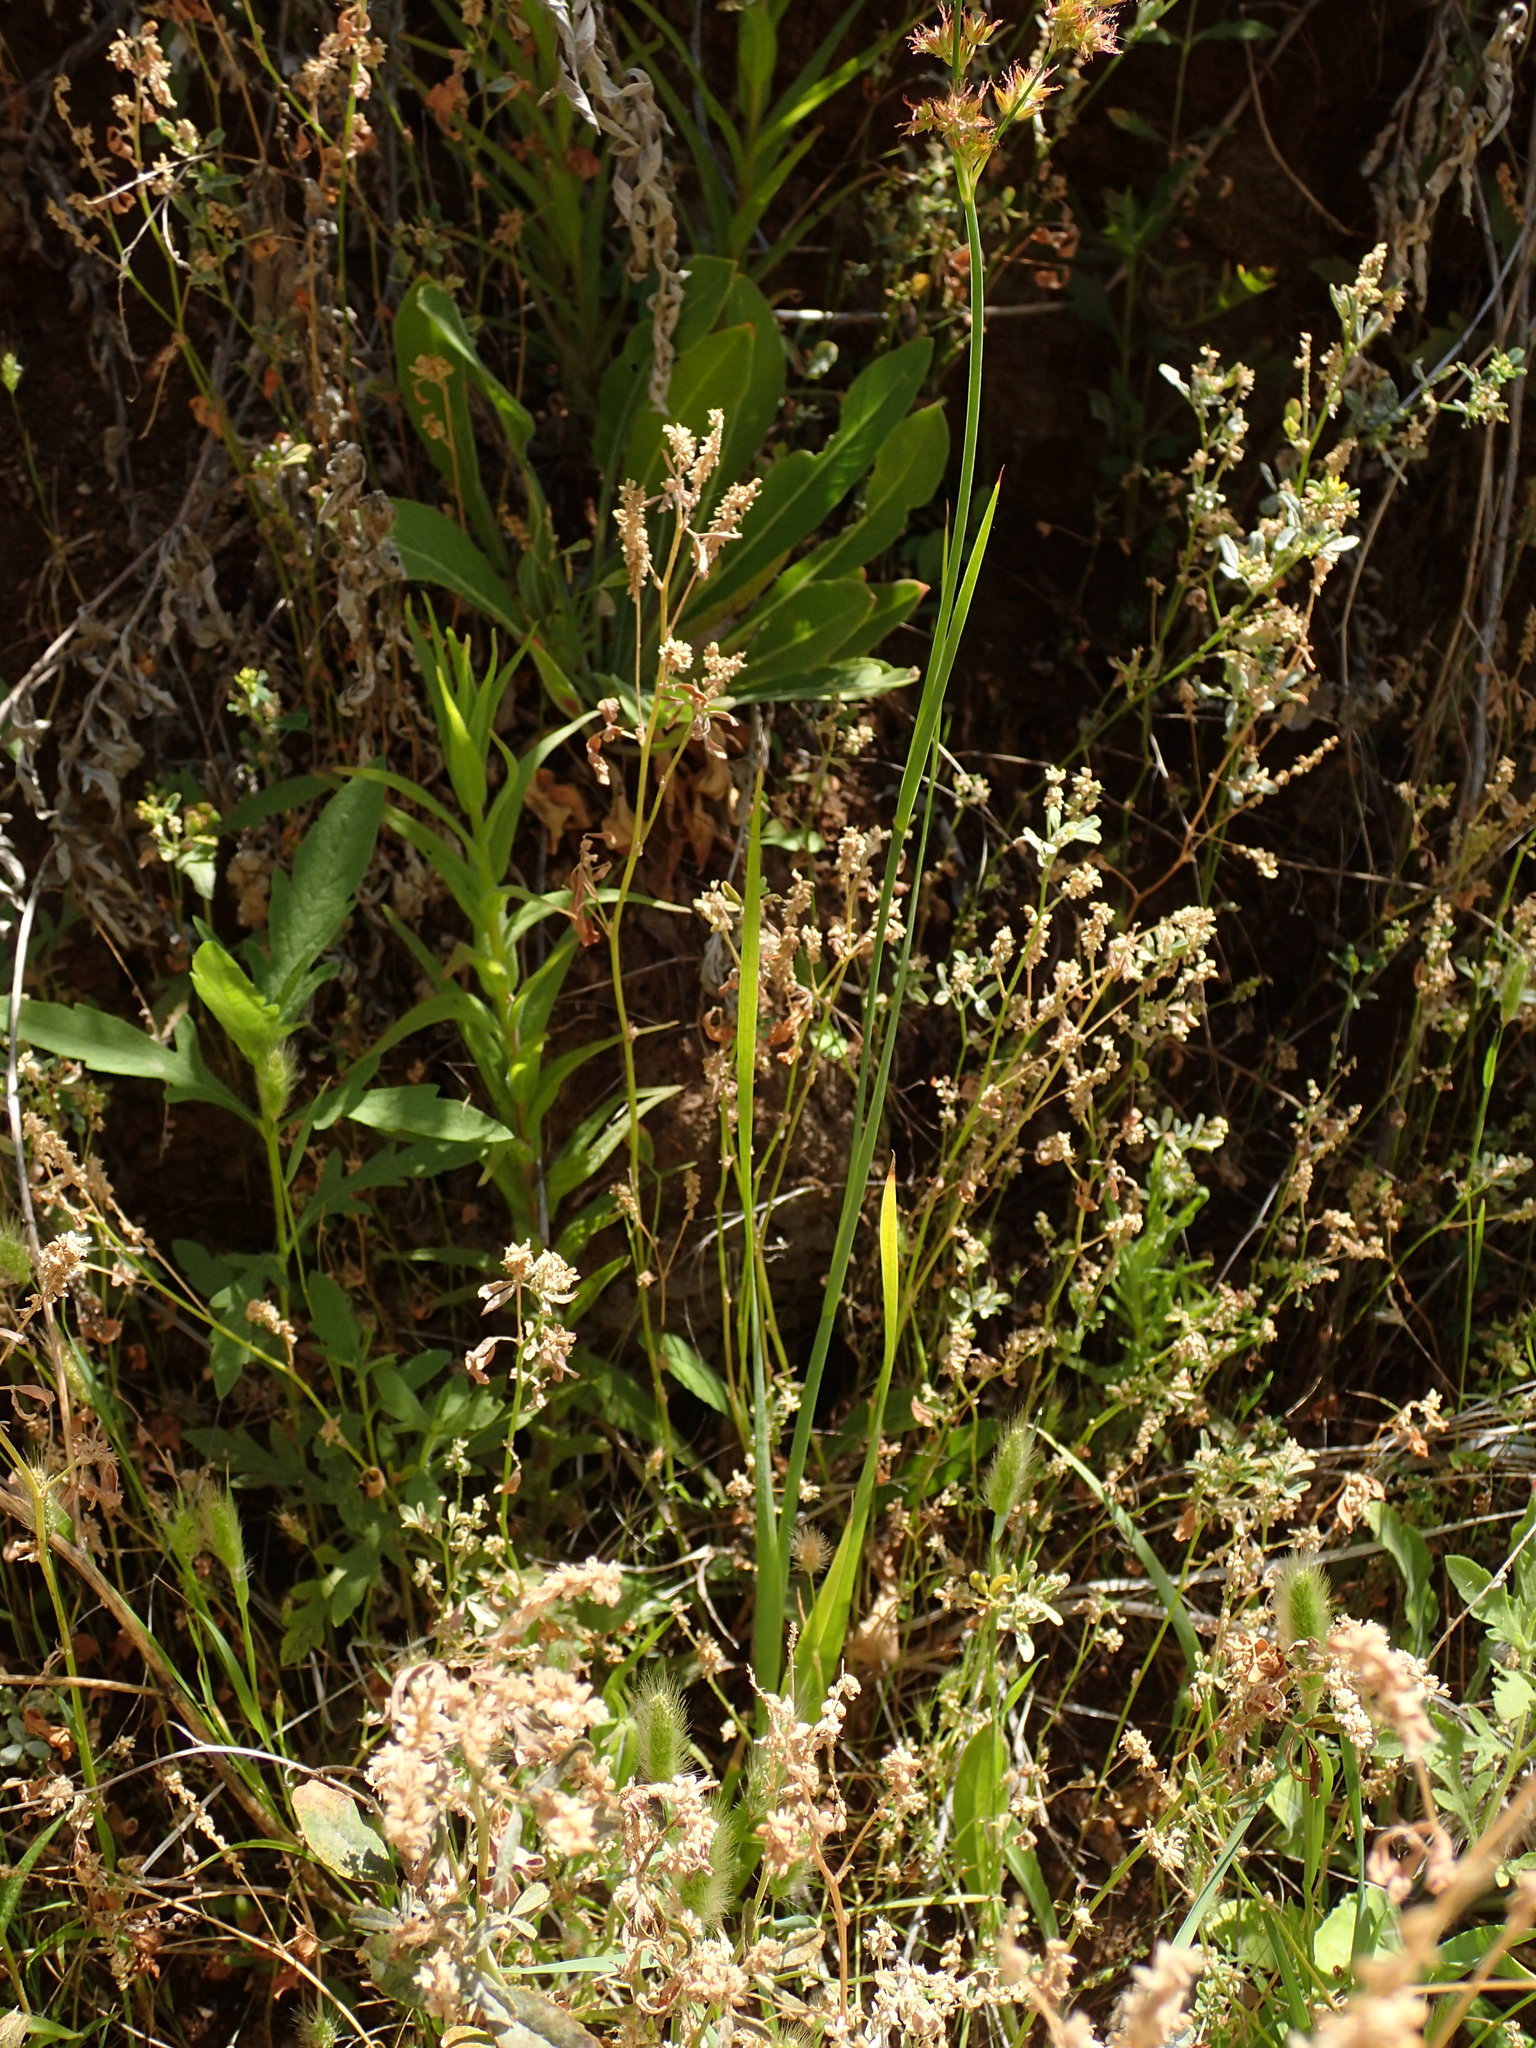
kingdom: Plantae
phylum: Tracheophyta
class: Liliopsida
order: Poales
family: Juncaceae
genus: Juncus
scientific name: Juncus xiphioides
